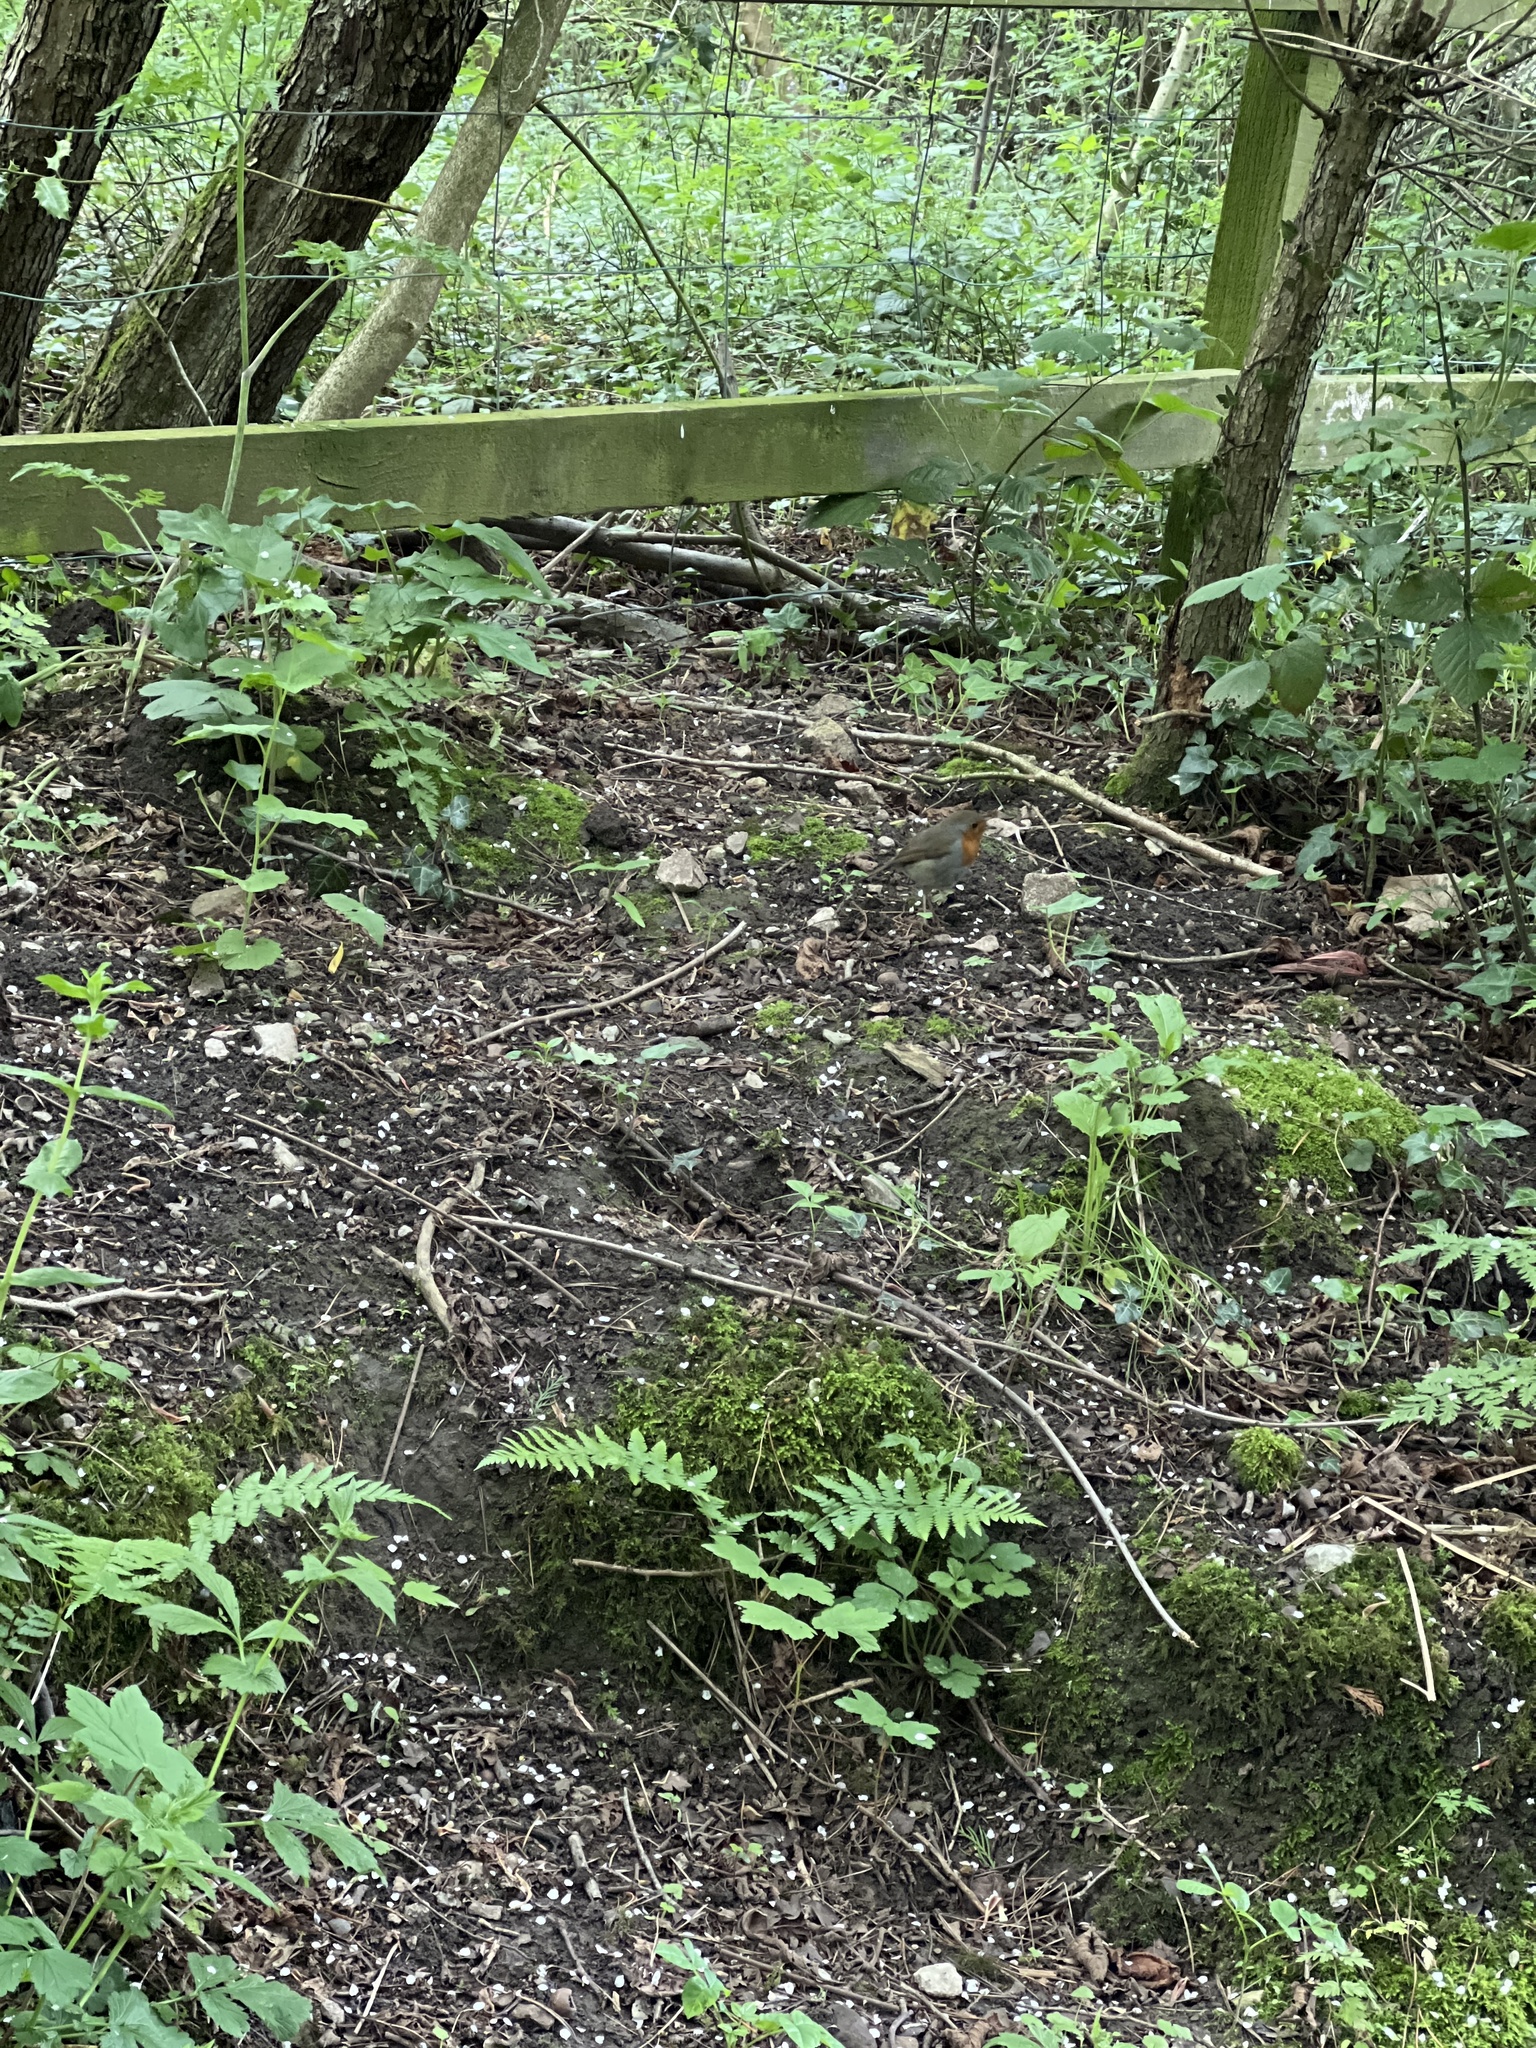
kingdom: Animalia
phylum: Chordata
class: Aves
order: Passeriformes
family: Muscicapidae
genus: Erithacus
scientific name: Erithacus rubecula
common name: European robin
